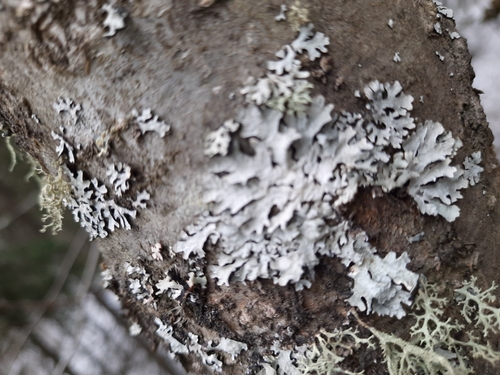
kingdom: Fungi
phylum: Ascomycota
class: Lecanoromycetes
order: Lecanorales
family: Parmeliaceae
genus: Hypogymnia
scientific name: Hypogymnia physodes
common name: Dark crottle
